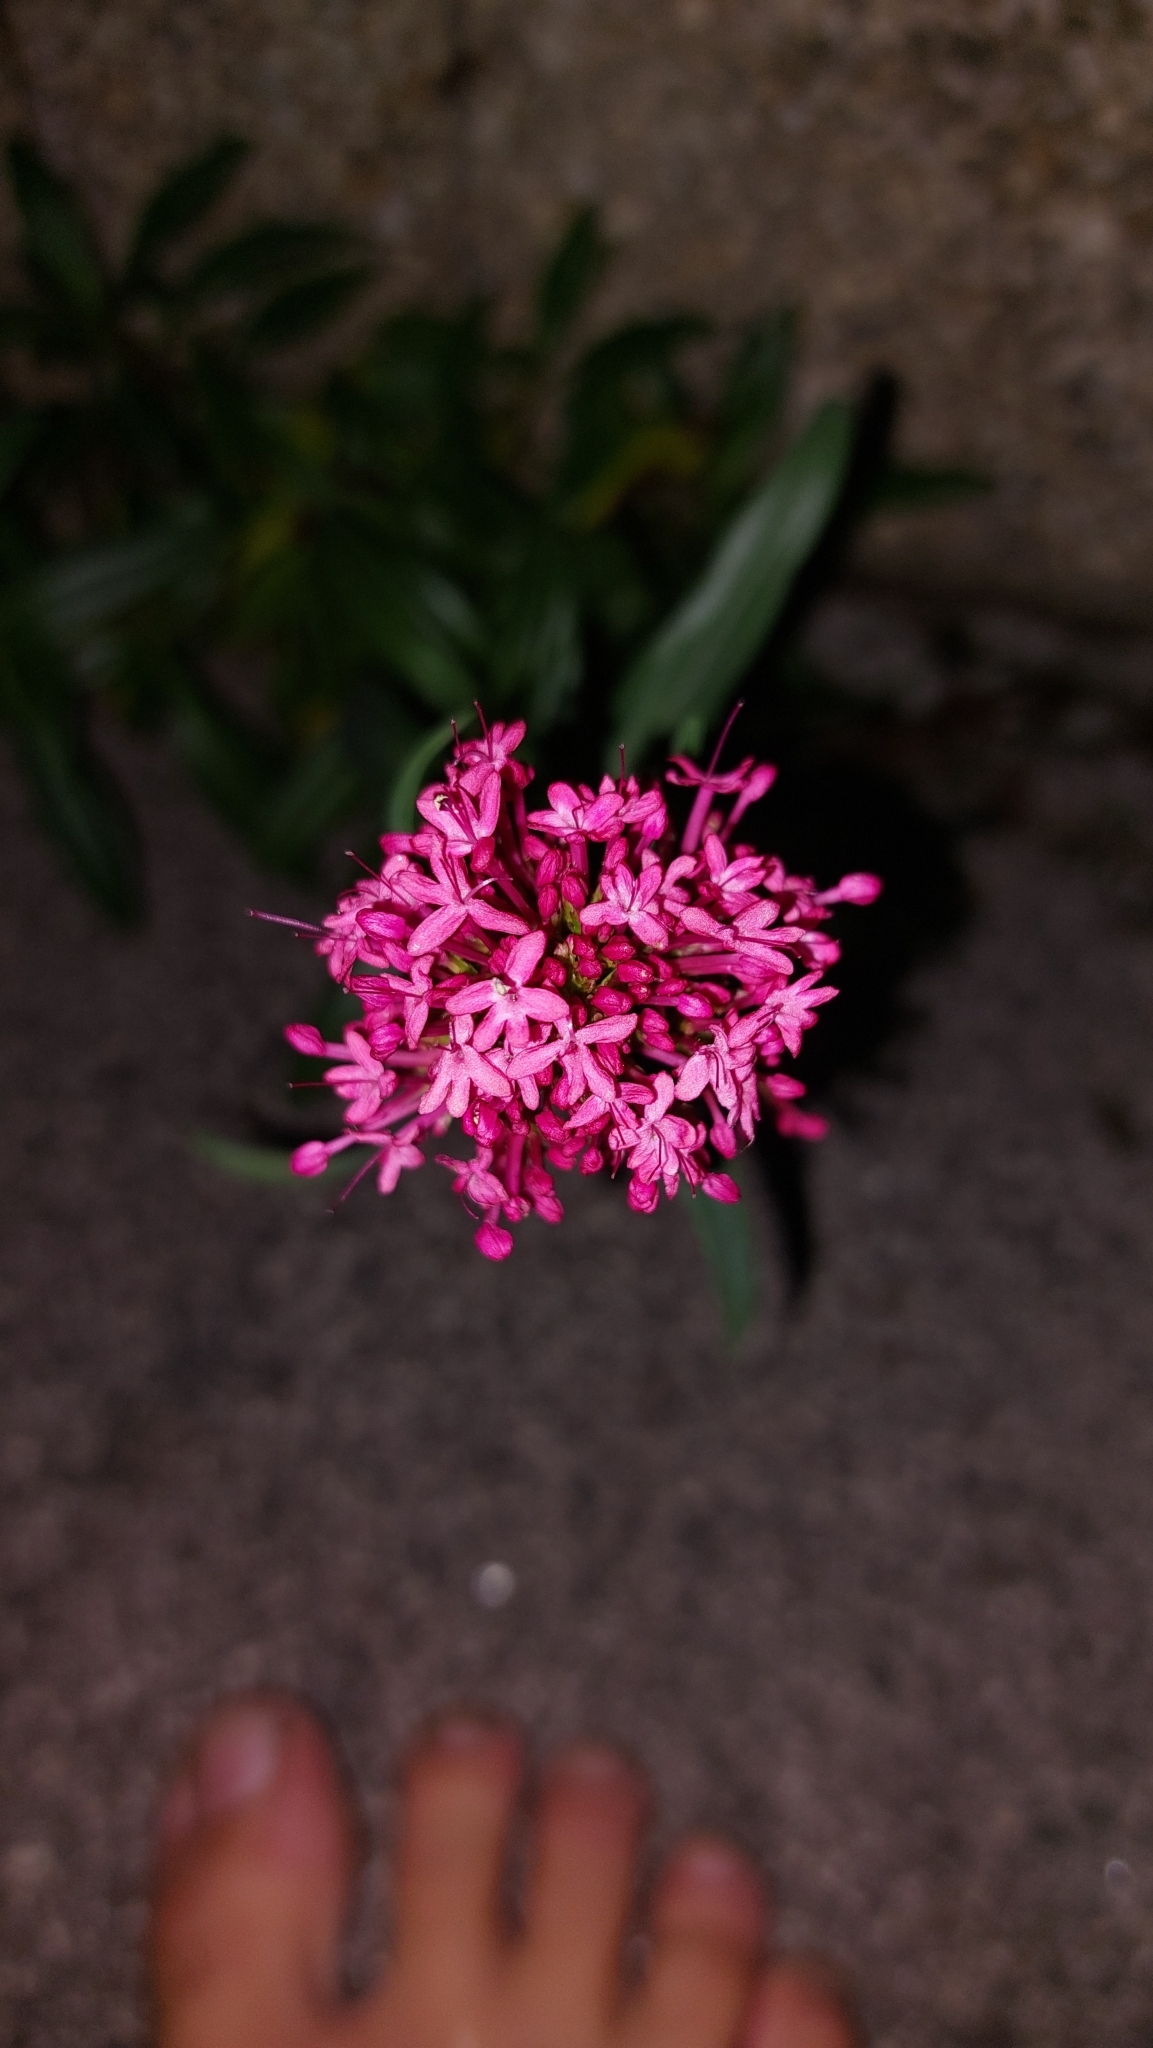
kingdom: Plantae
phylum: Tracheophyta
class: Magnoliopsida
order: Dipsacales
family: Caprifoliaceae
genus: Centranthus
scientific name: Centranthus ruber
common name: Red valerian
